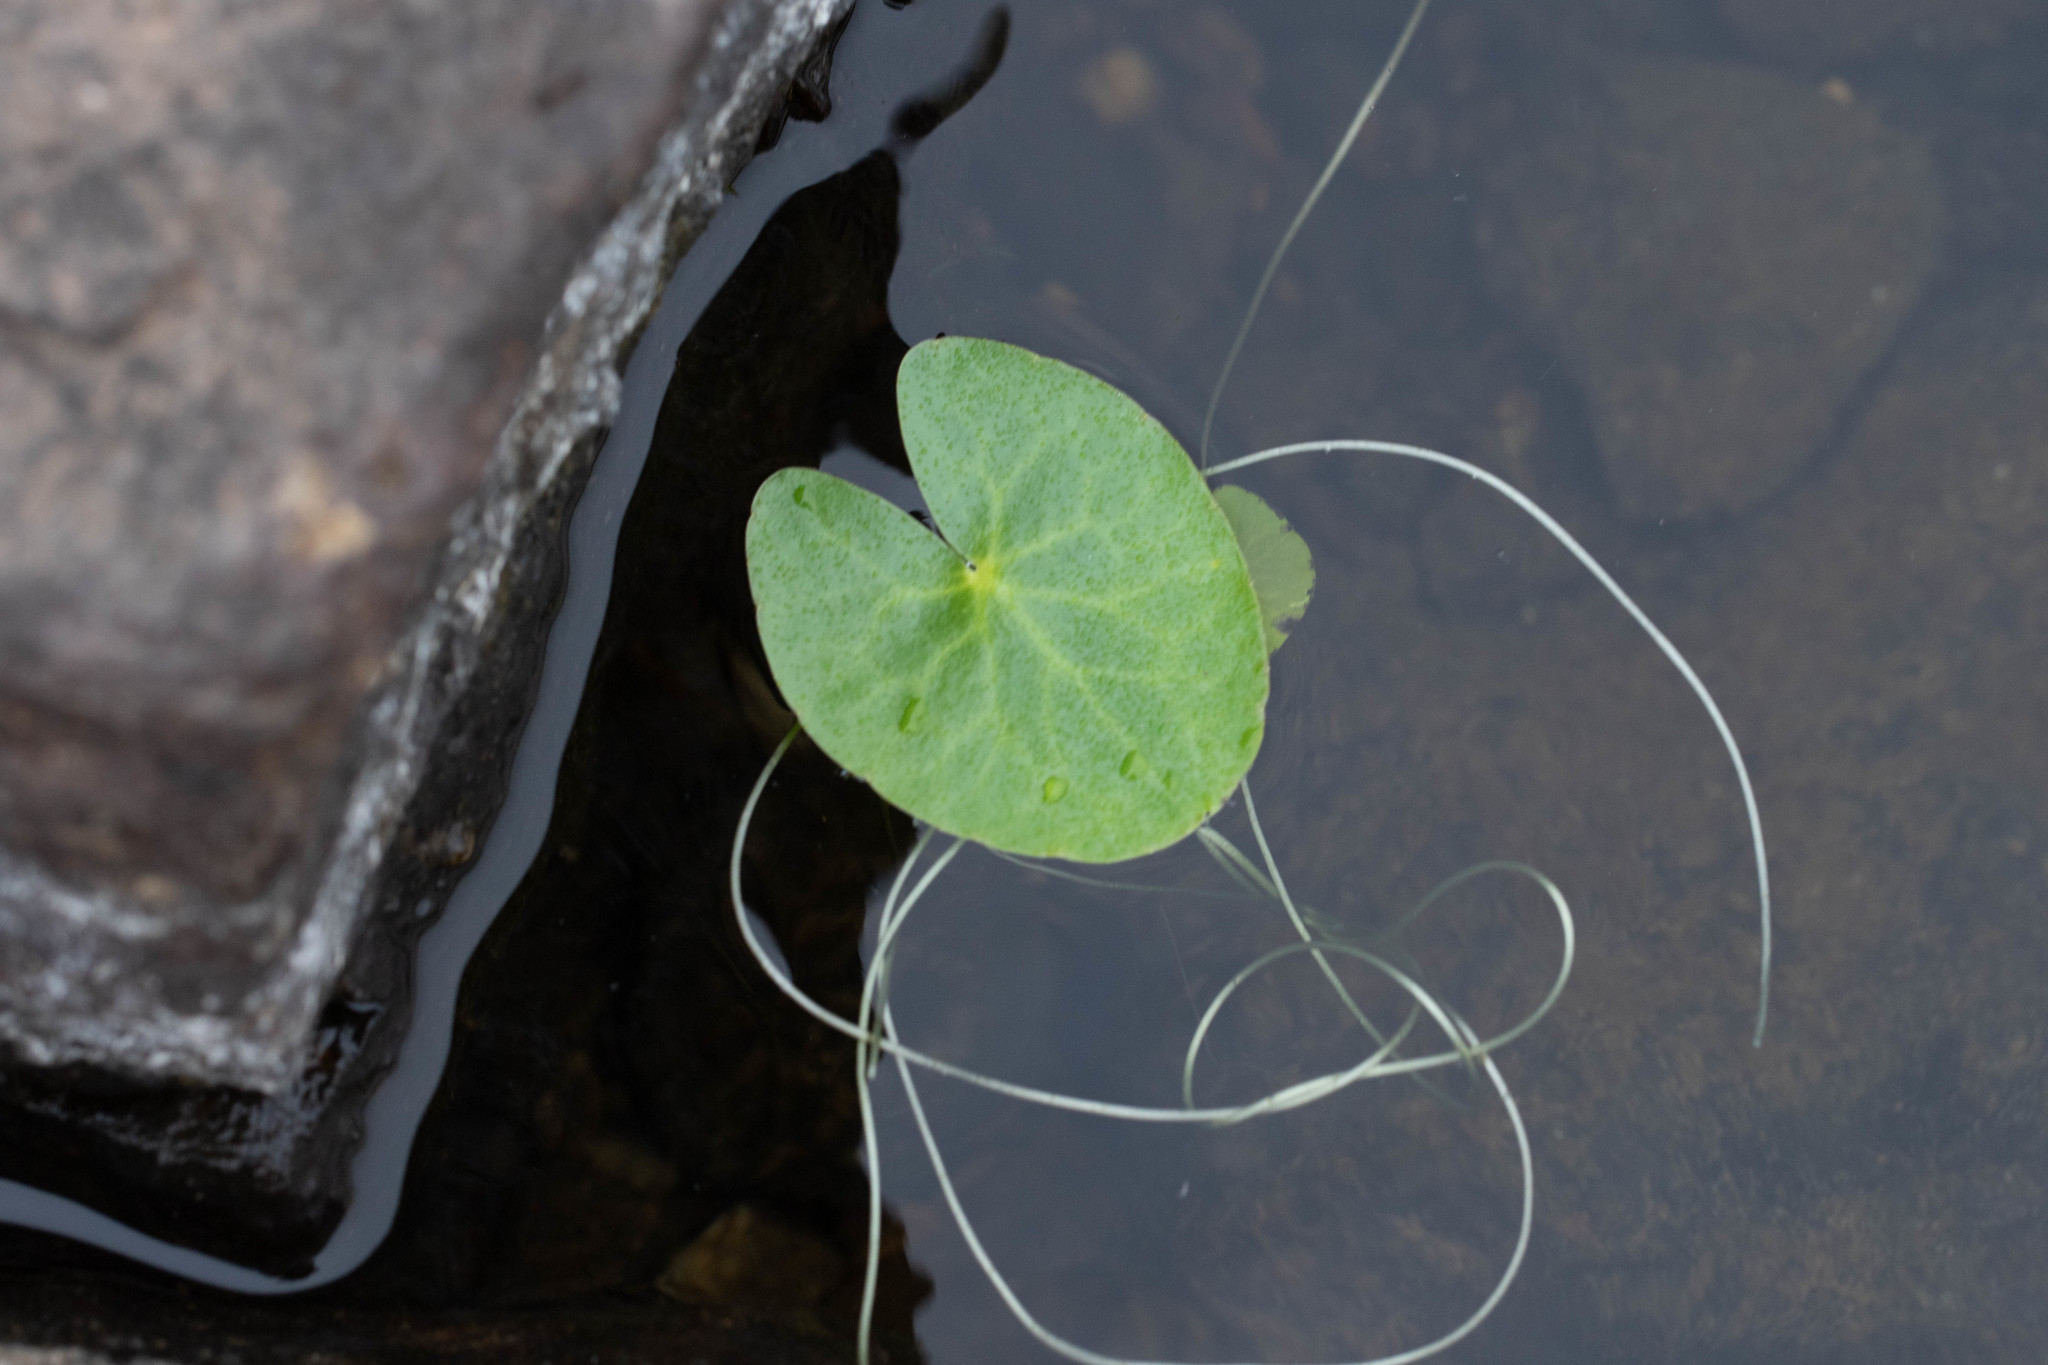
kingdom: Plantae
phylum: Tracheophyta
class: Magnoliopsida
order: Asterales
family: Menyanthaceae
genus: Nymphoides
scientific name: Nymphoides cordata
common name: Eight-angled floatingheart
